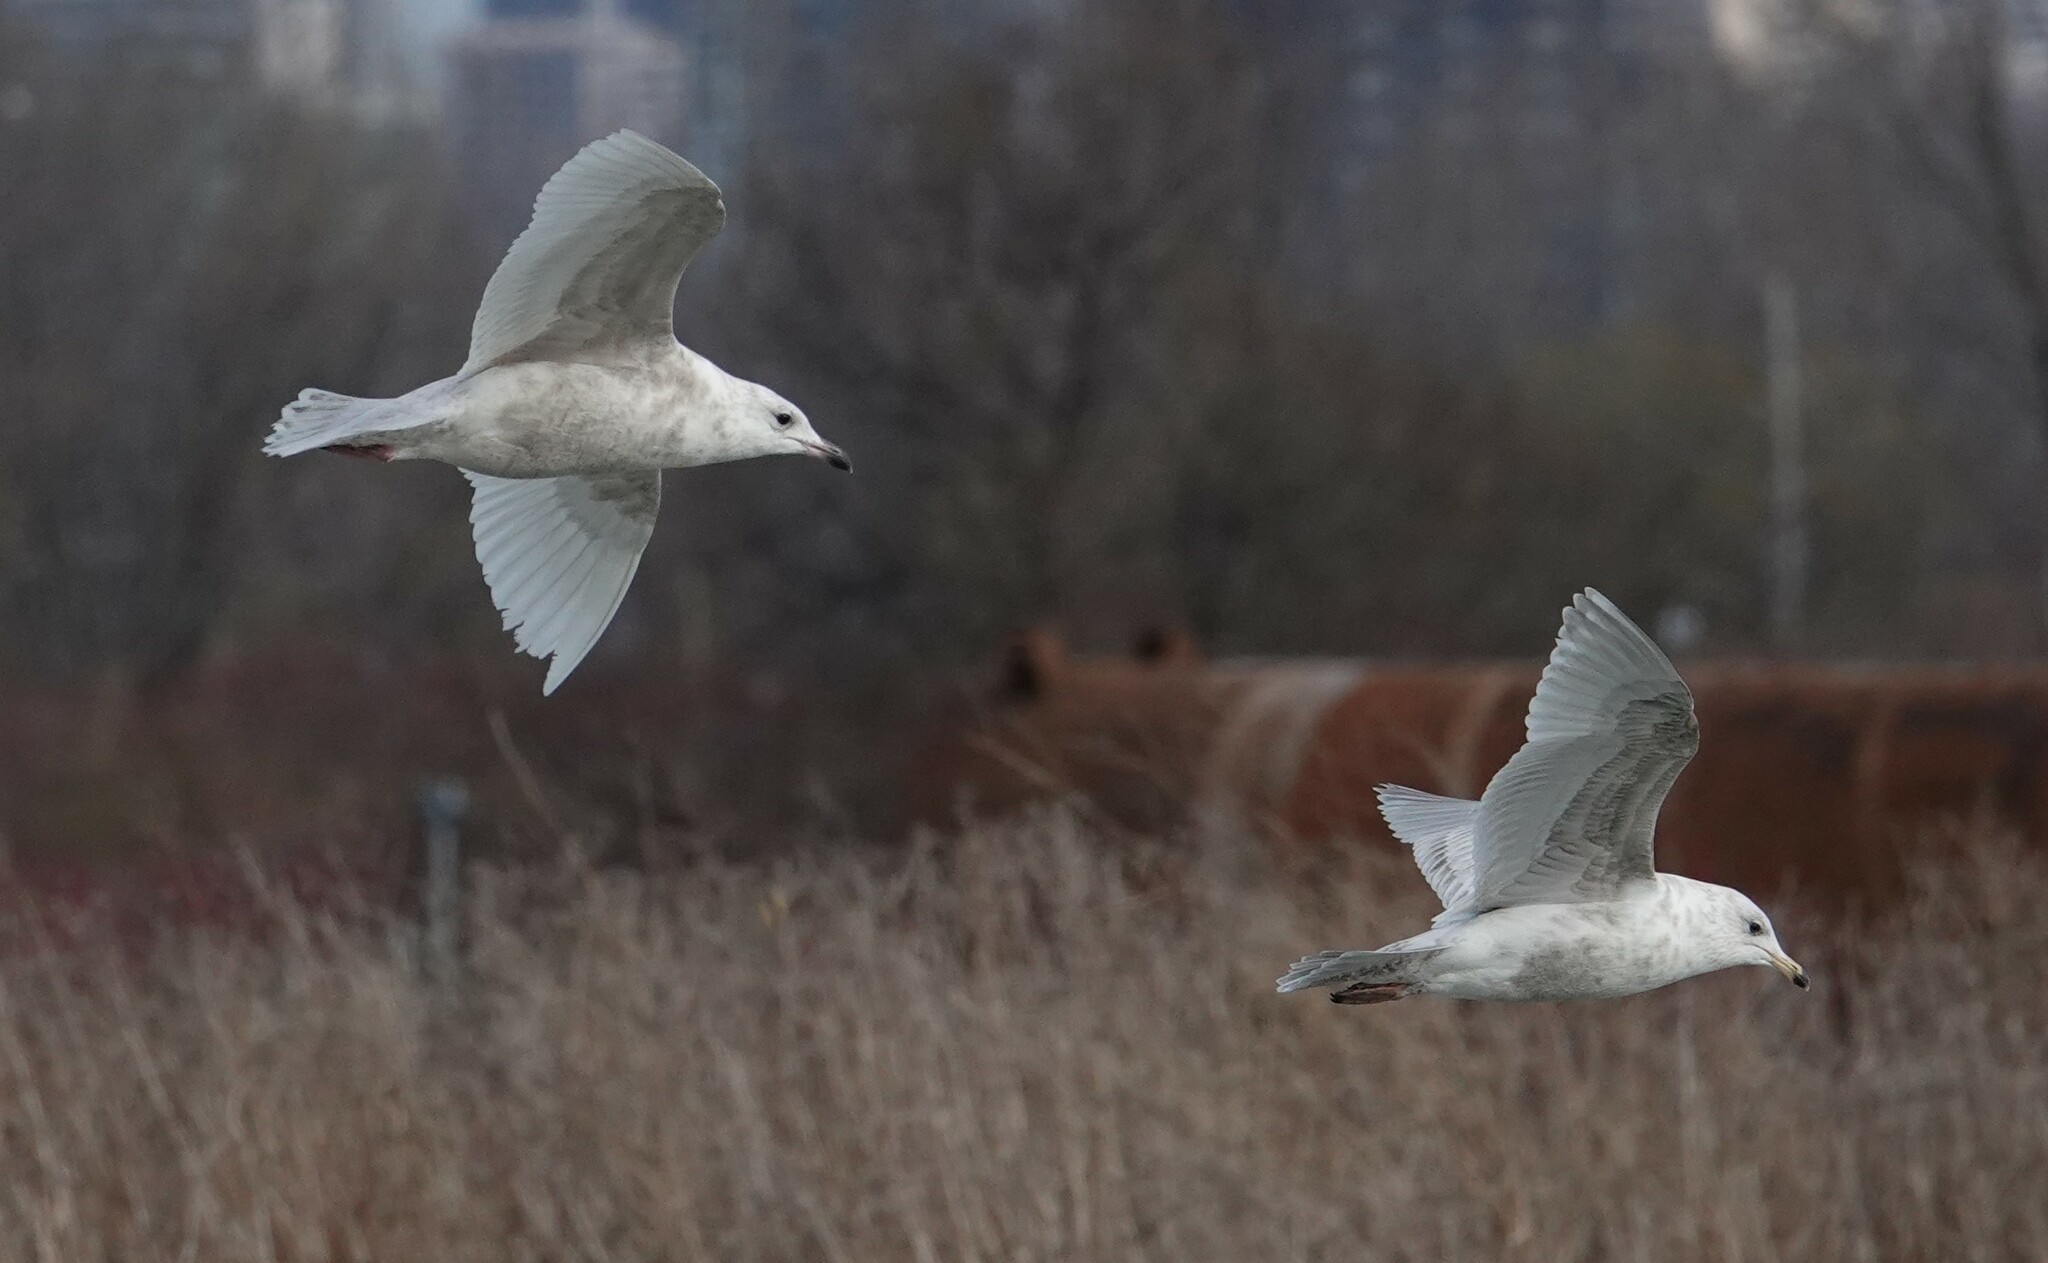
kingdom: Animalia
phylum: Chordata
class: Aves
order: Charadriiformes
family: Laridae
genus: Larus
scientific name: Larus glaucoides
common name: Iceland gull
